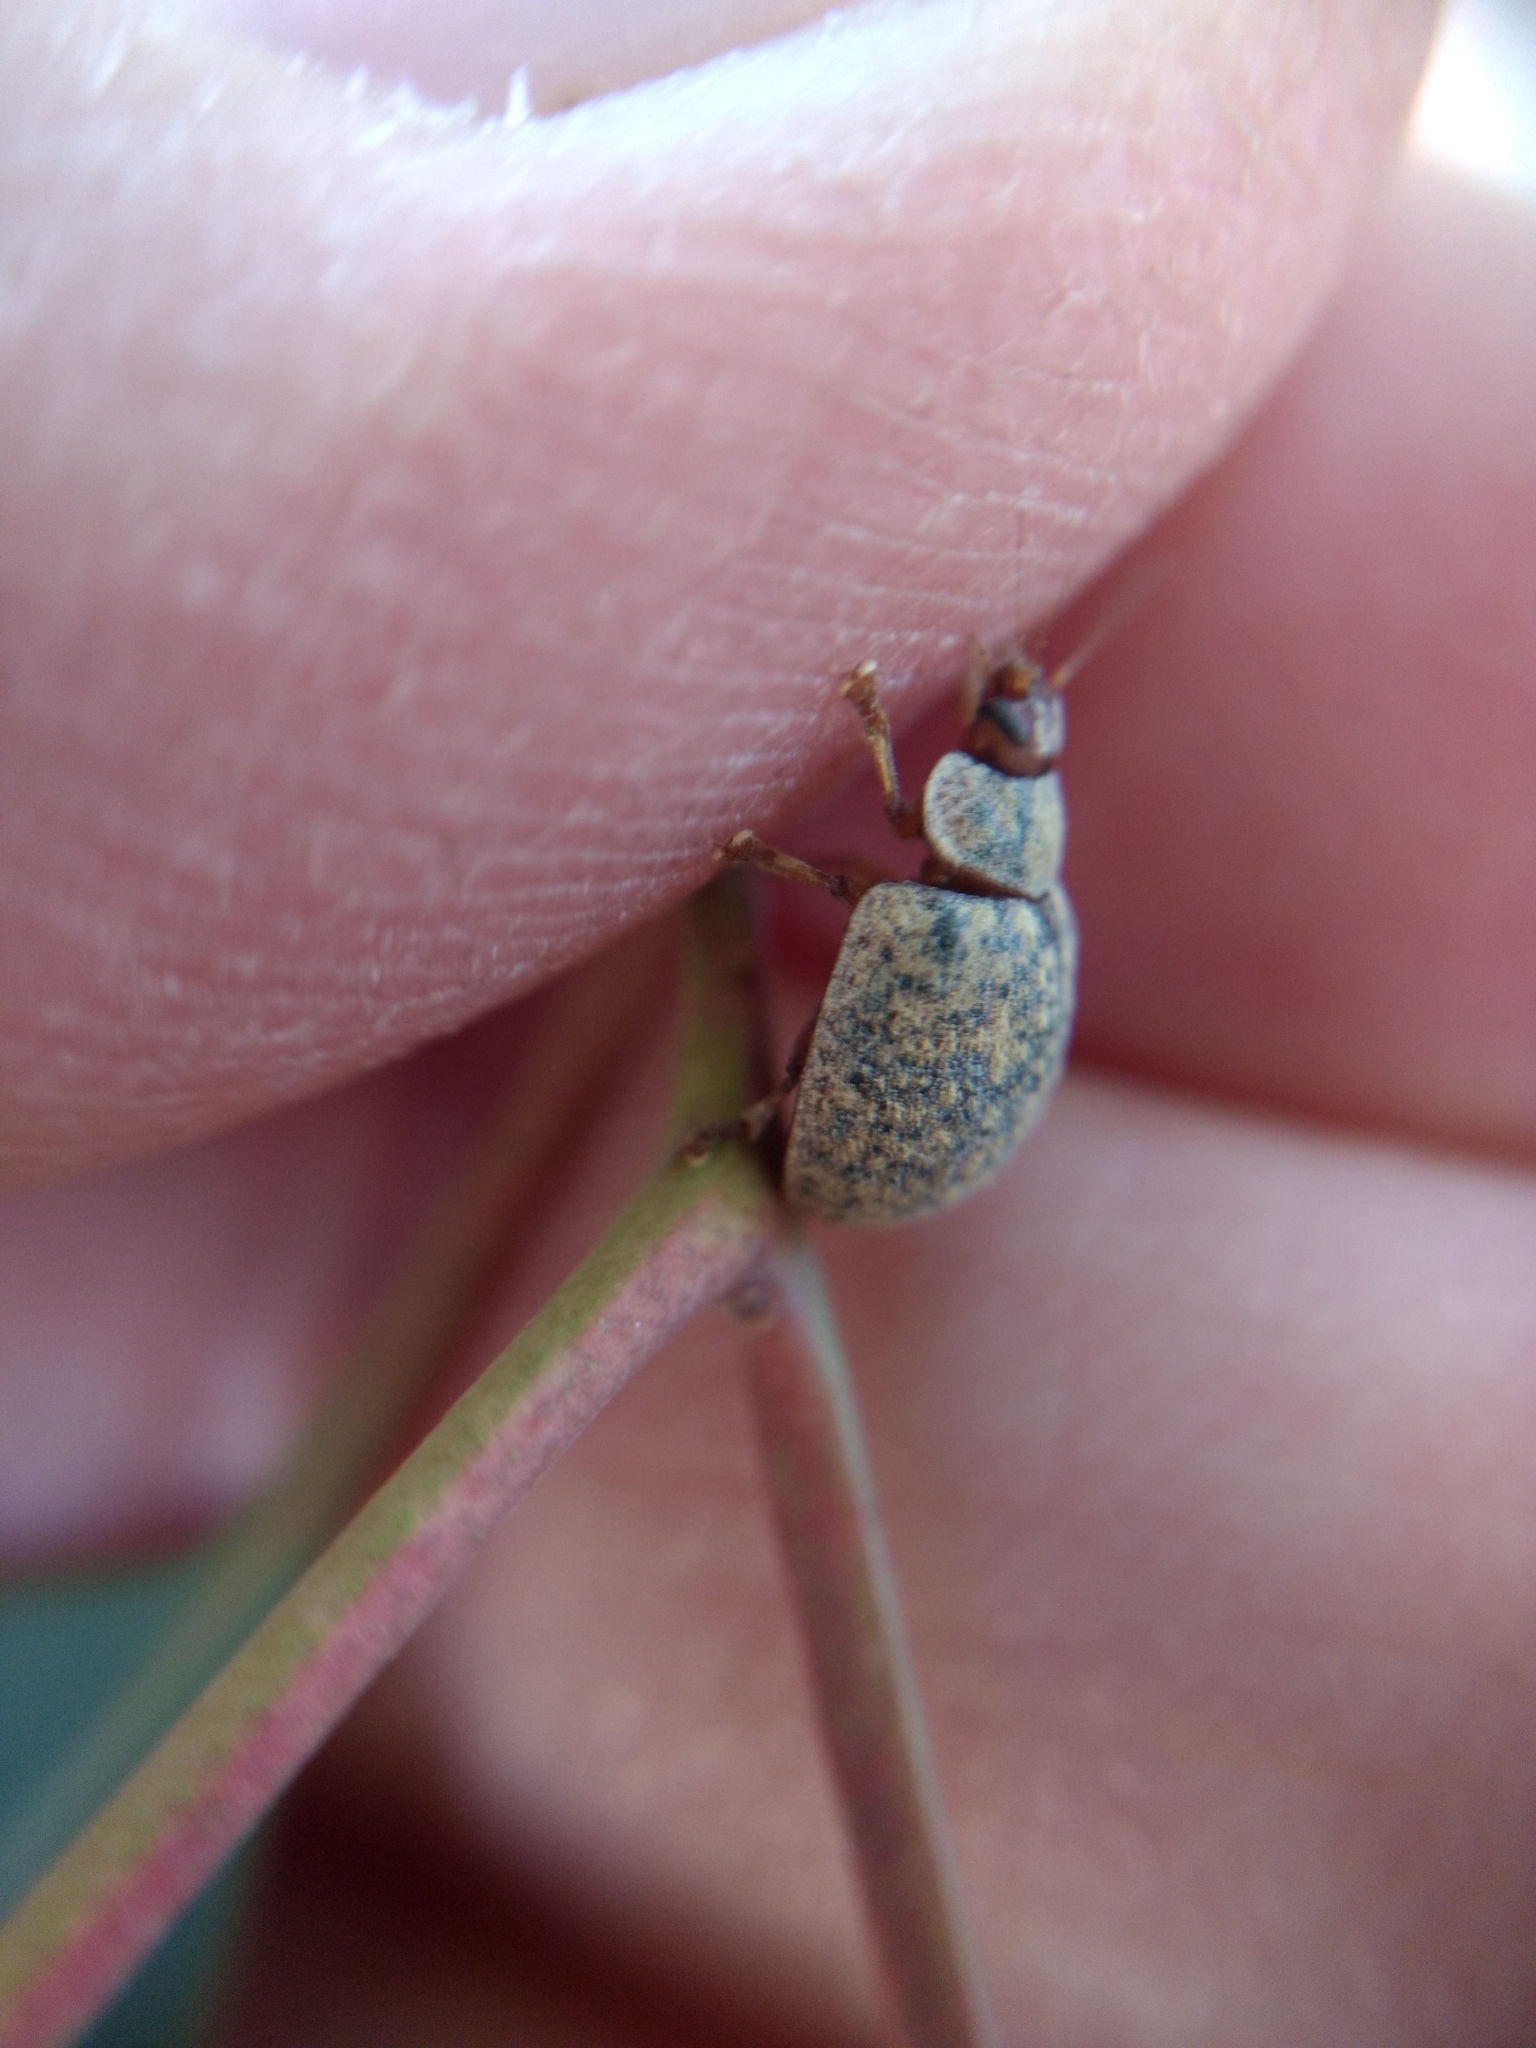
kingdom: Animalia
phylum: Arthropoda
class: Insecta
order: Coleoptera
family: Chrysomelidae
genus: Trachymela
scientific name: Trachymela sloanei
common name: Australian tortoise beetle
